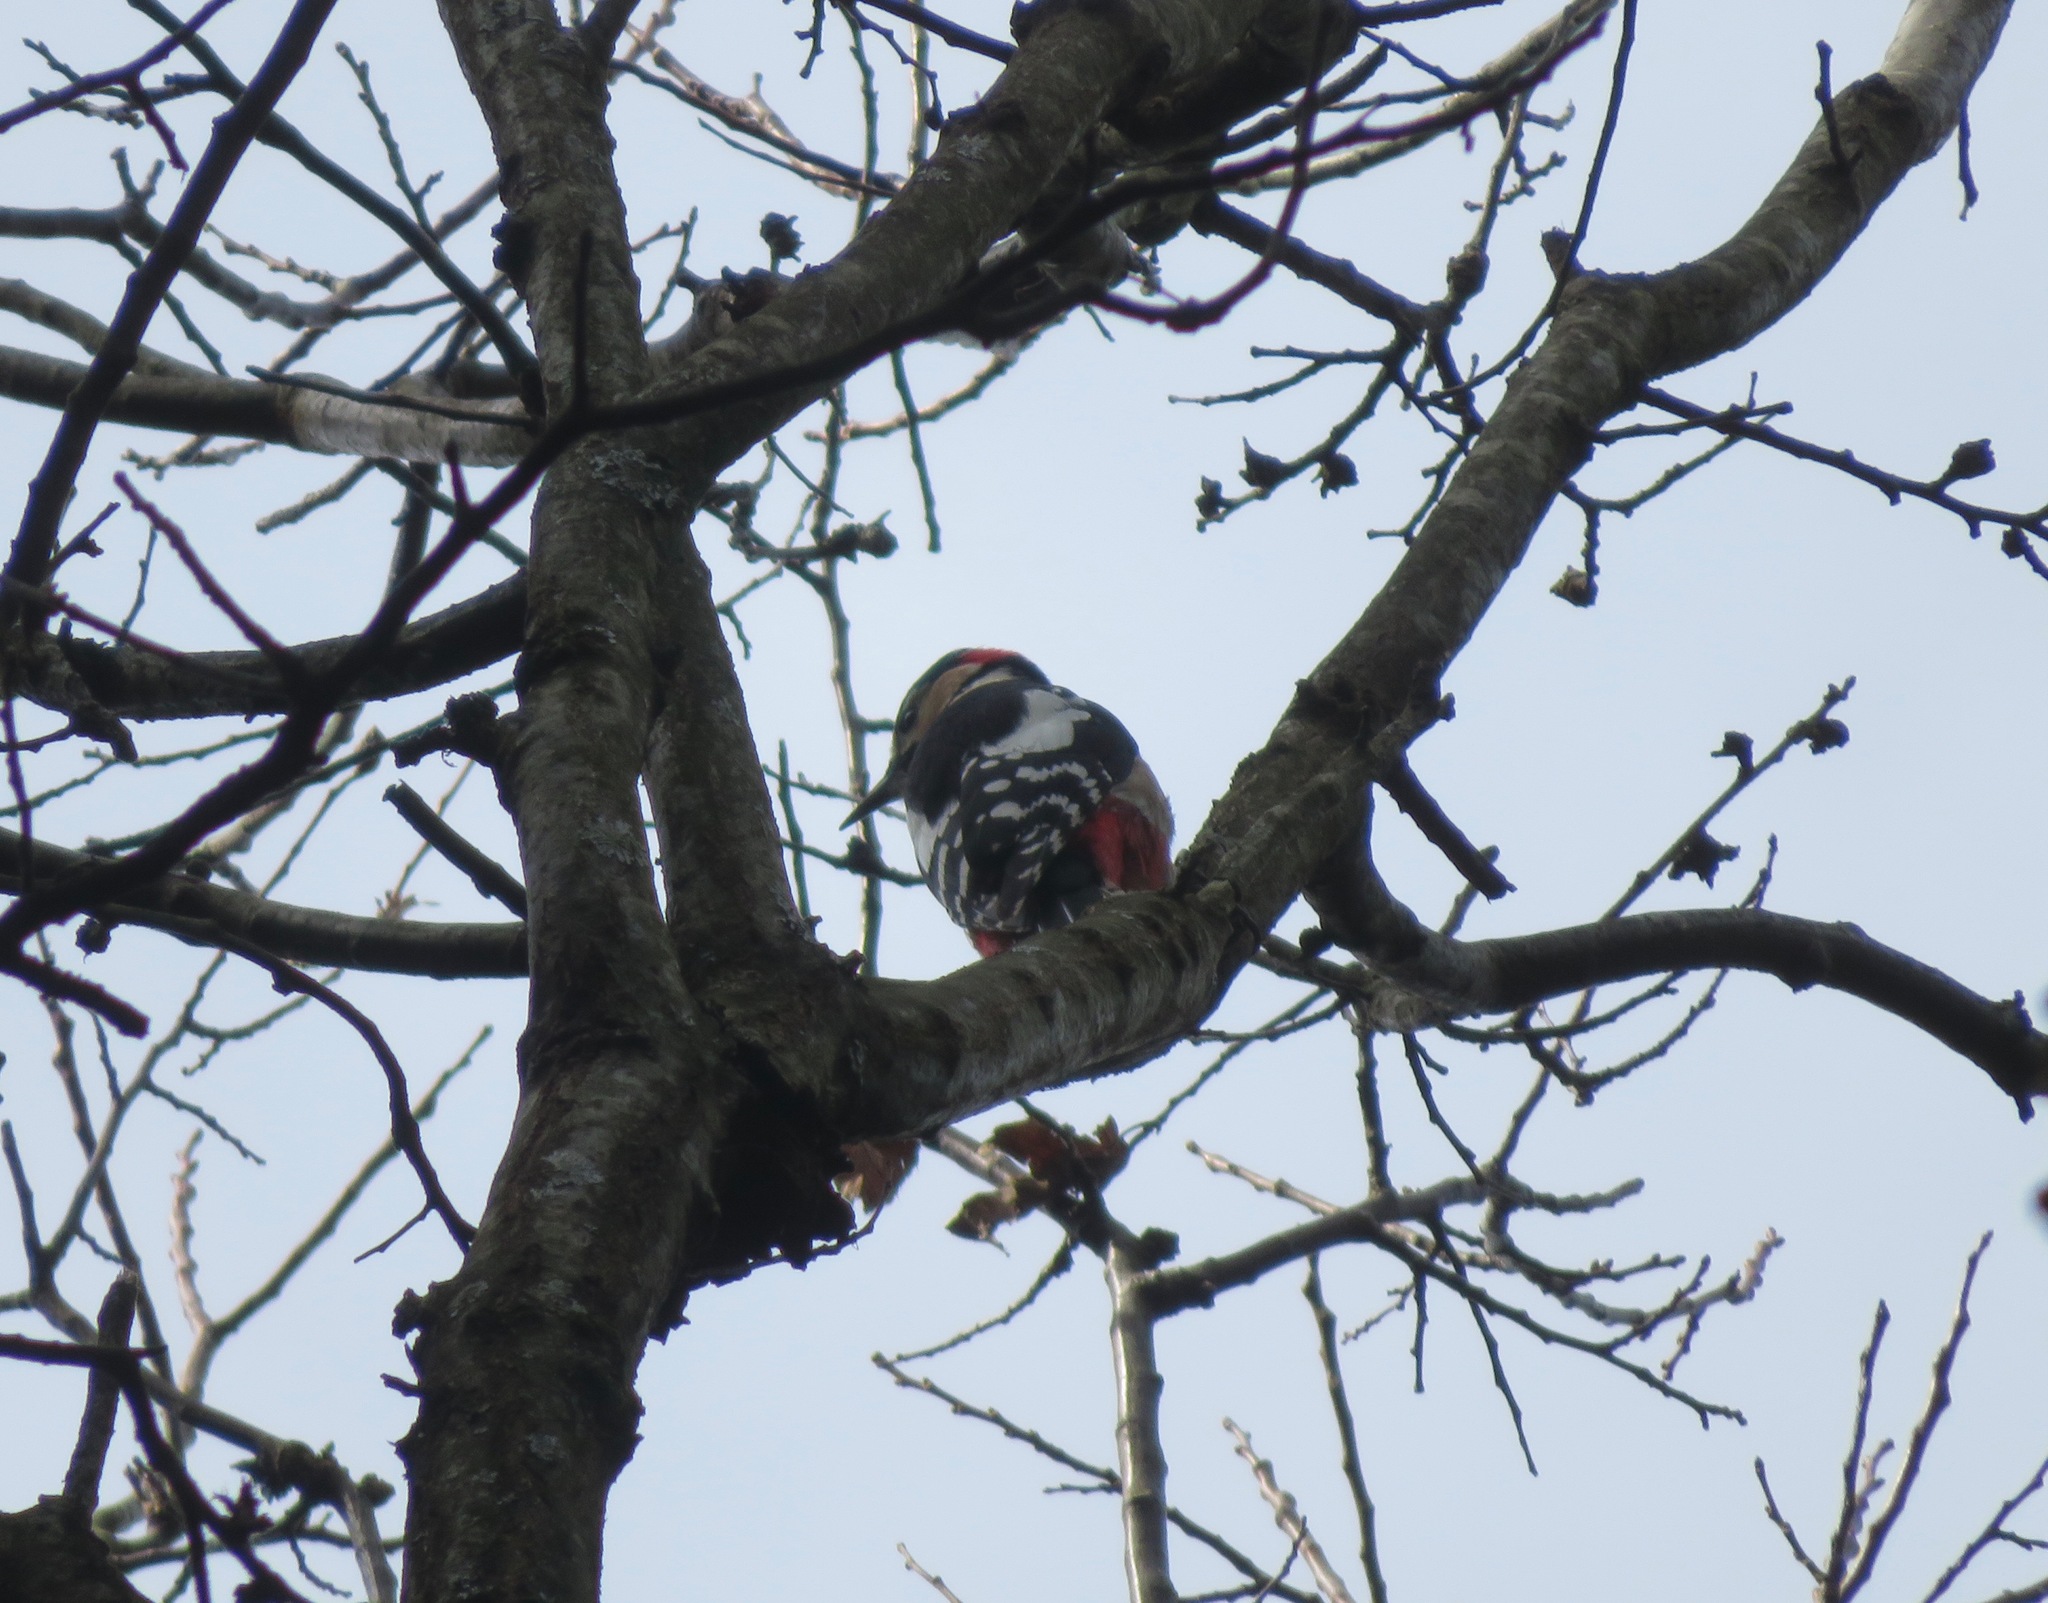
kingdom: Animalia
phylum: Chordata
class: Aves
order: Piciformes
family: Picidae
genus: Dendrocopos
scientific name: Dendrocopos major
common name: Great spotted woodpecker
